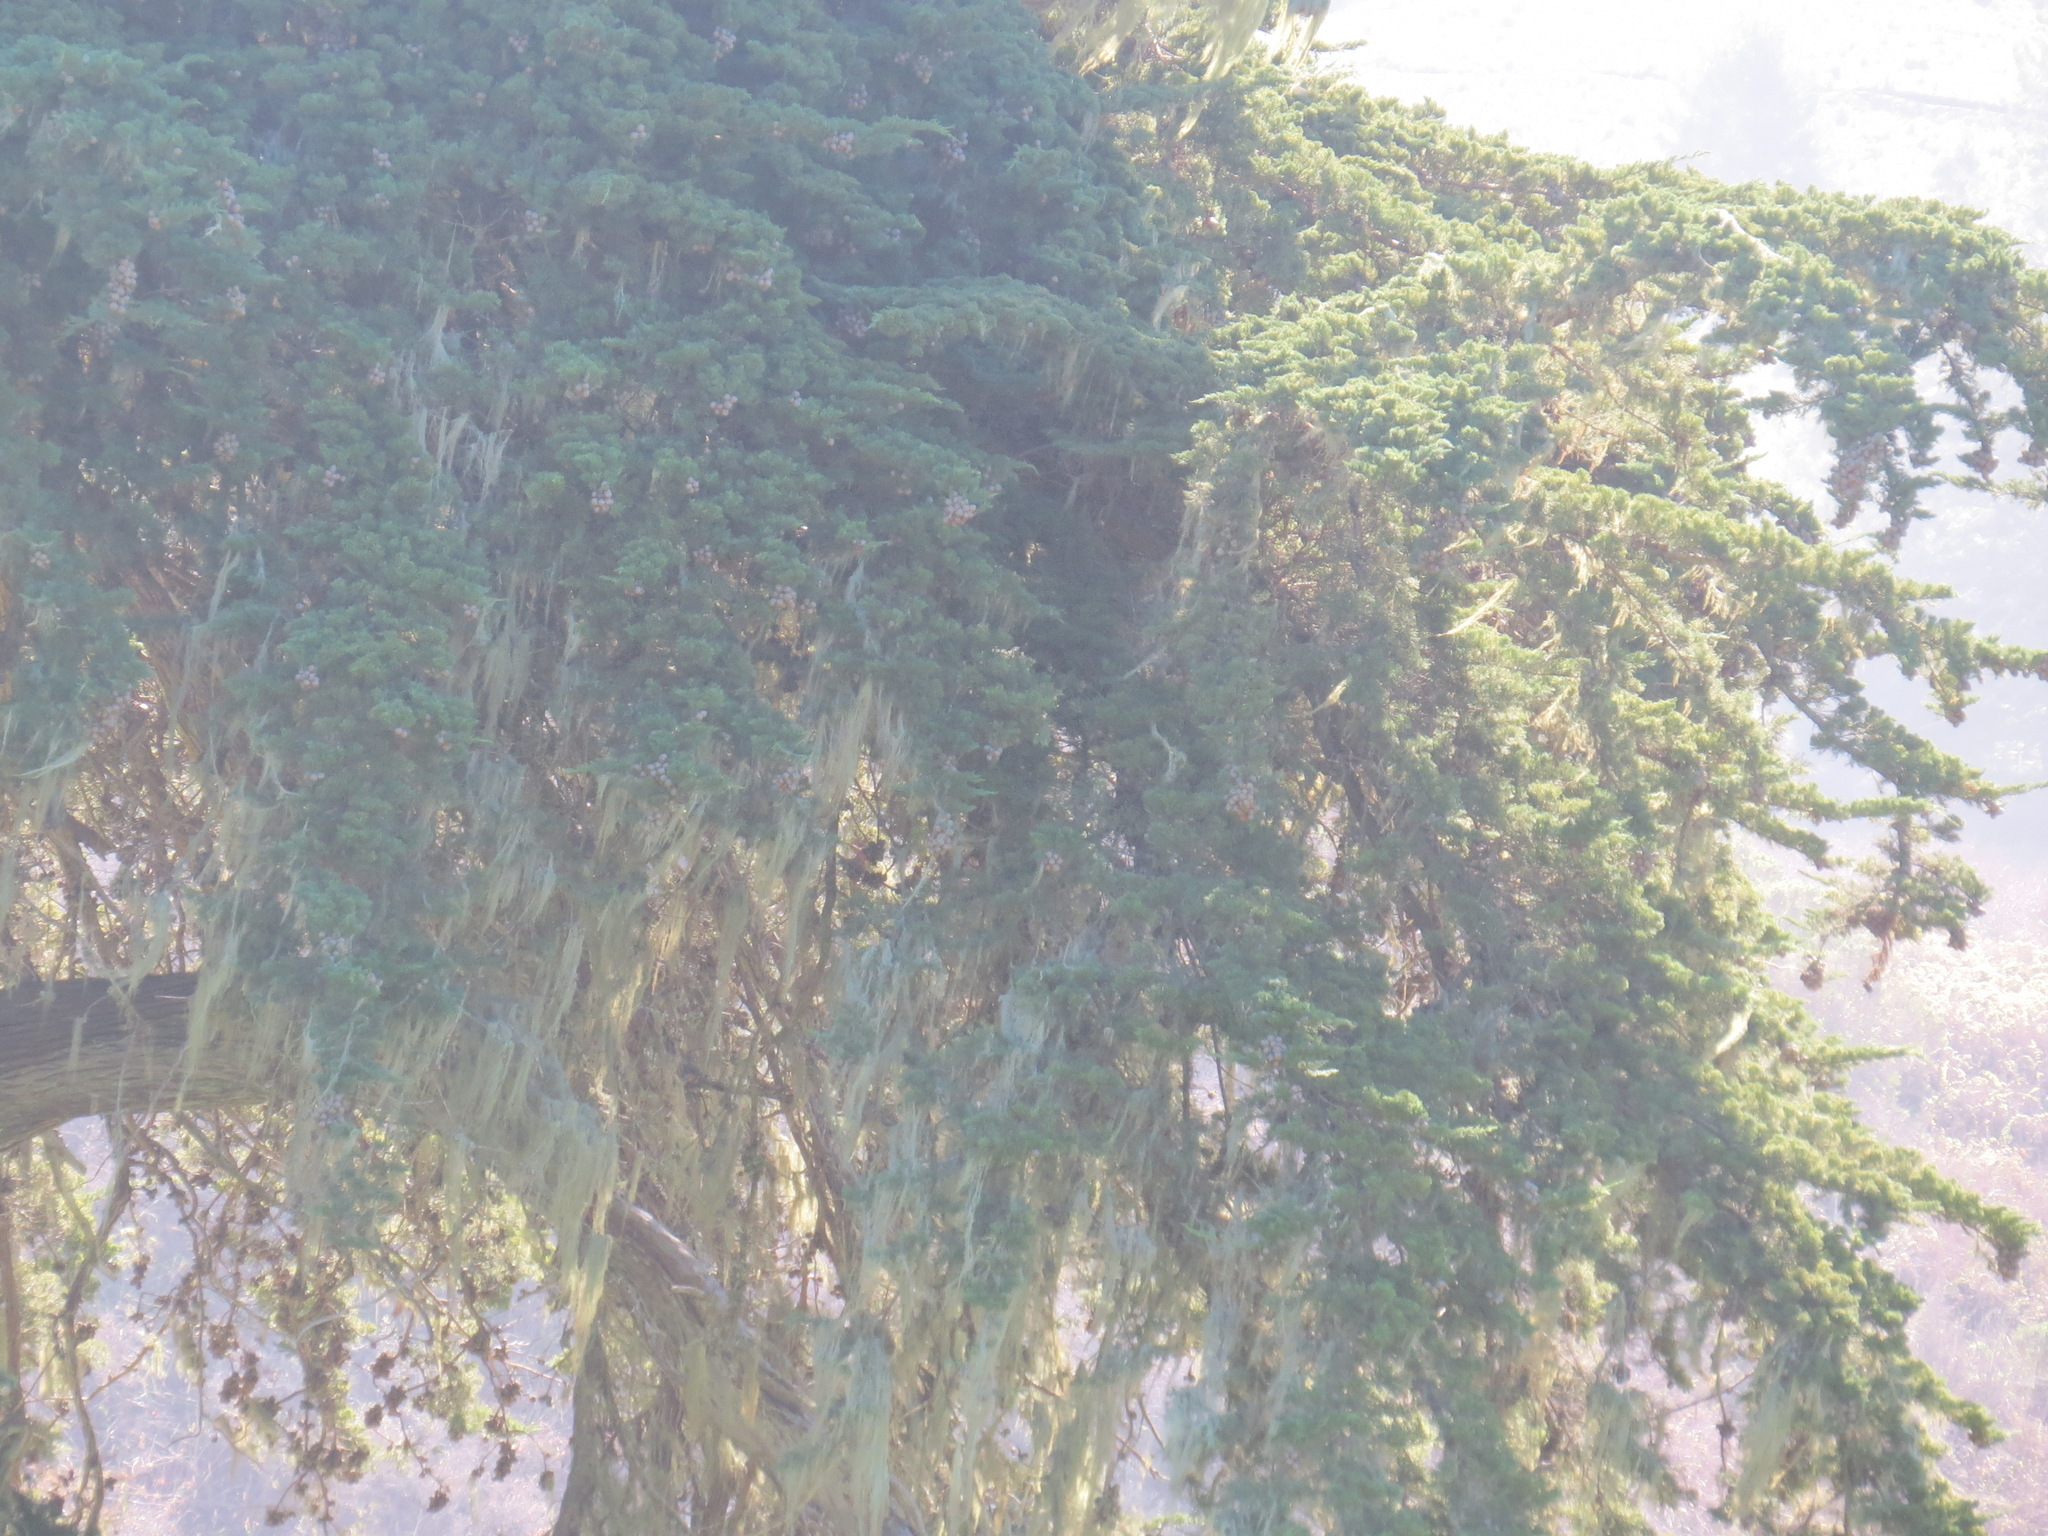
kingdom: Plantae
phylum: Tracheophyta
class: Pinopsida
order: Pinales
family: Cupressaceae
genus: Cupressus
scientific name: Cupressus macrocarpa
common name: Monterey cypress
